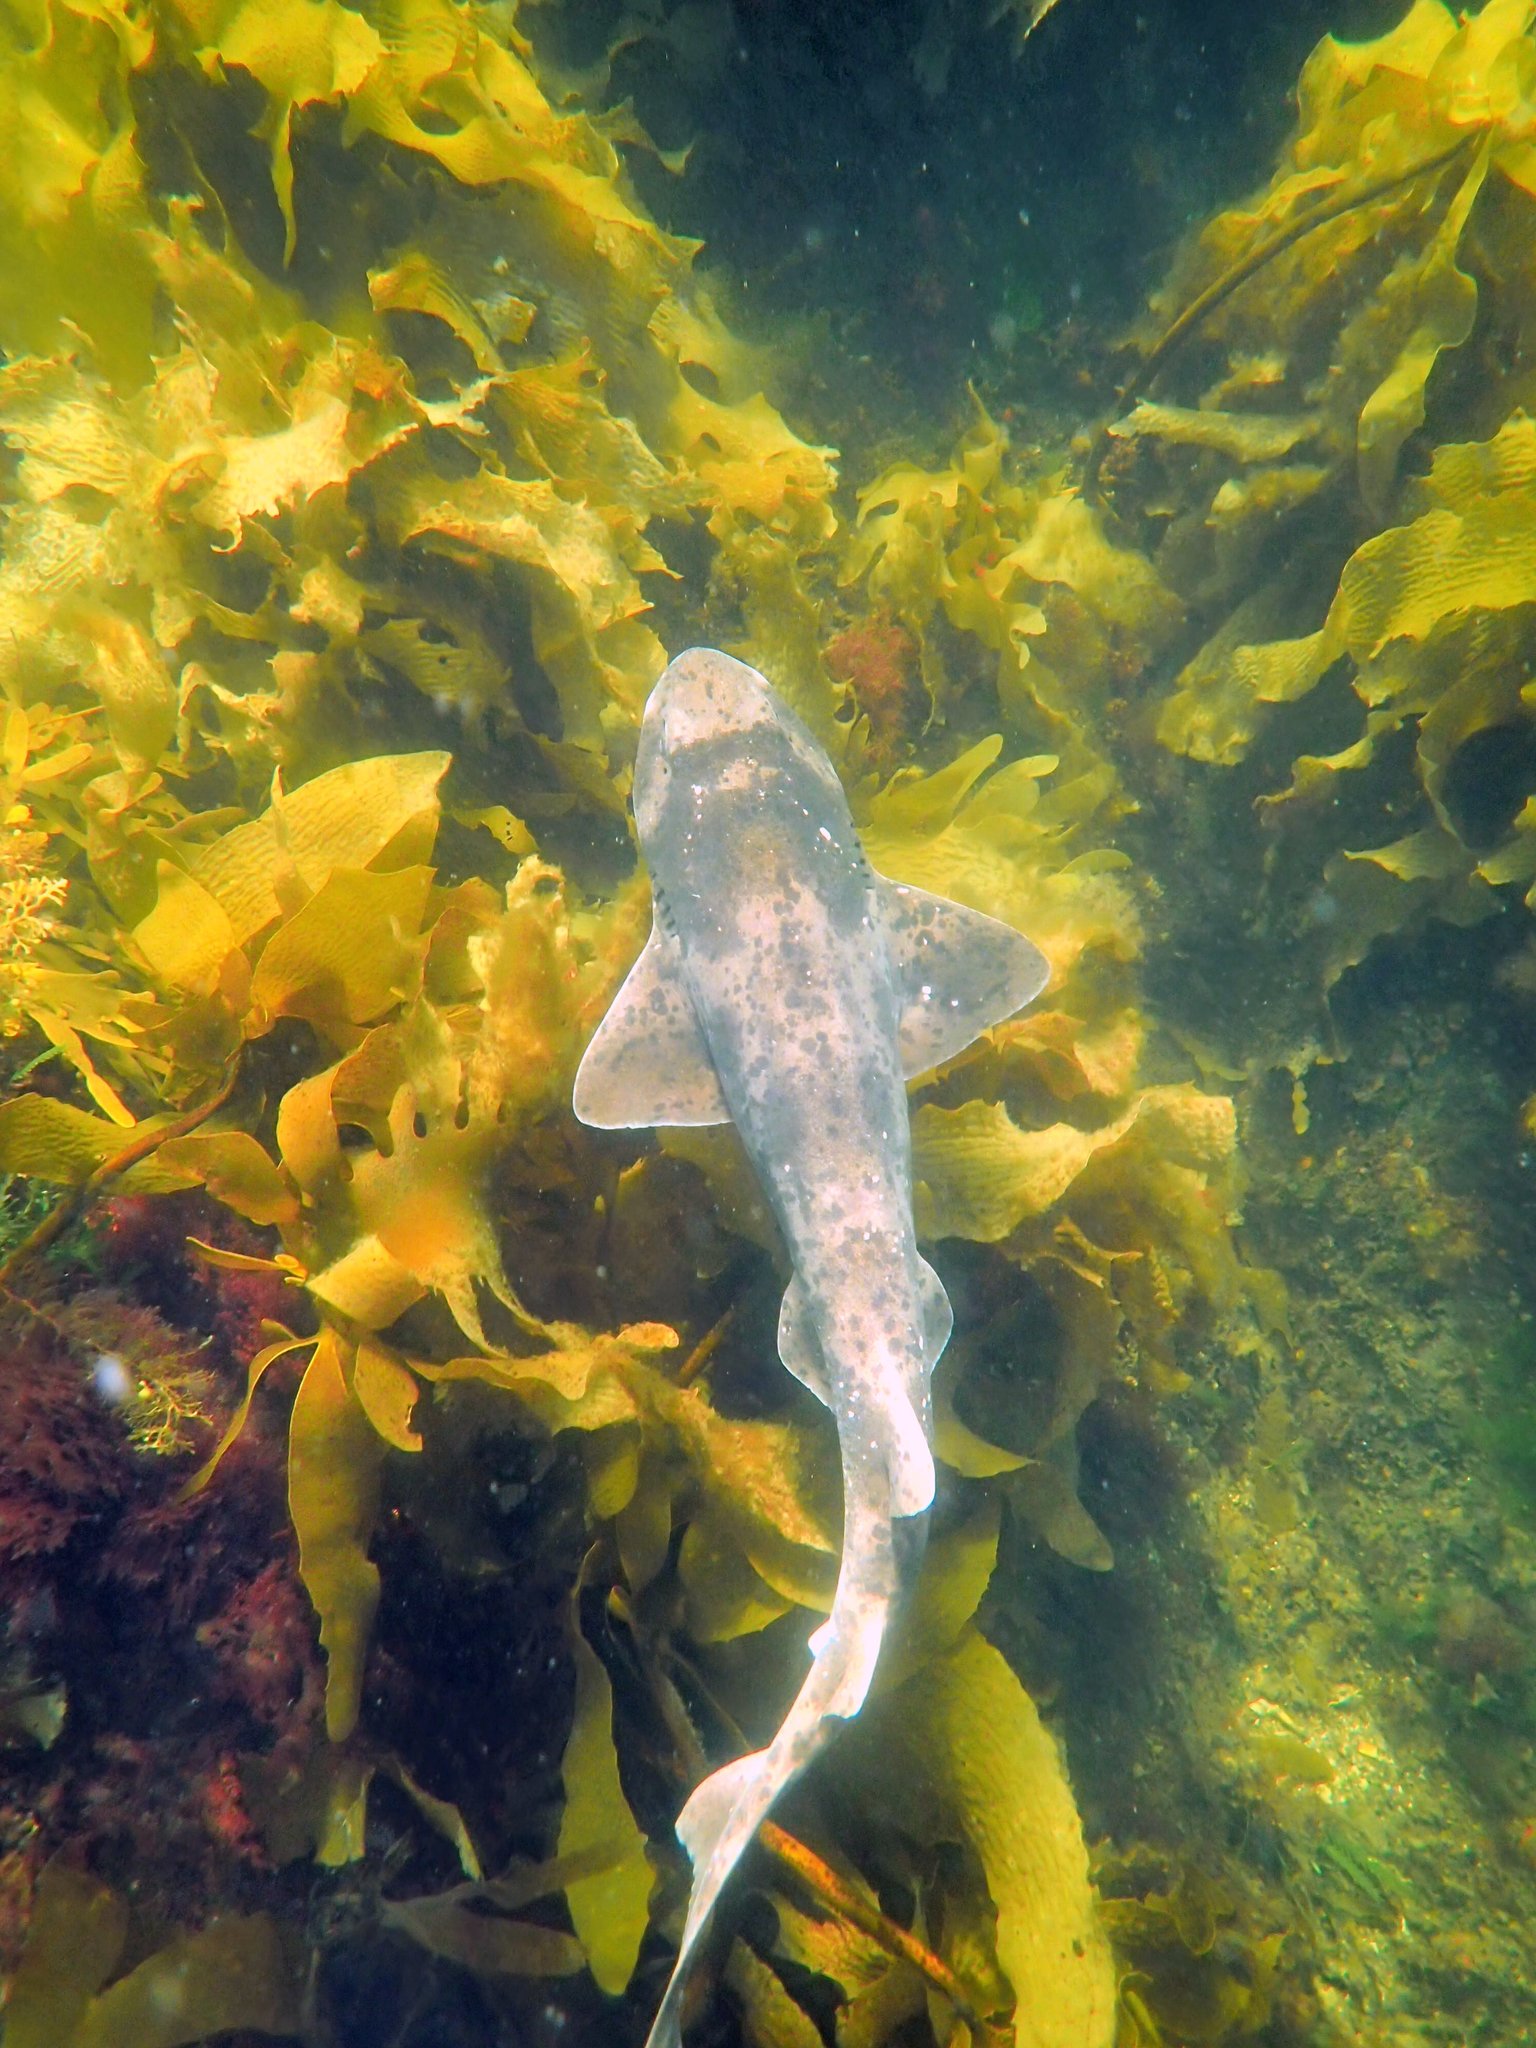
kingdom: Animalia
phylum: Chordata
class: Elasmobranchii
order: Carcharhiniformes
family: Scyliorhinidae
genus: Cephaloscyllium
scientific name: Cephaloscyllium laticeps
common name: Australian swellshark
